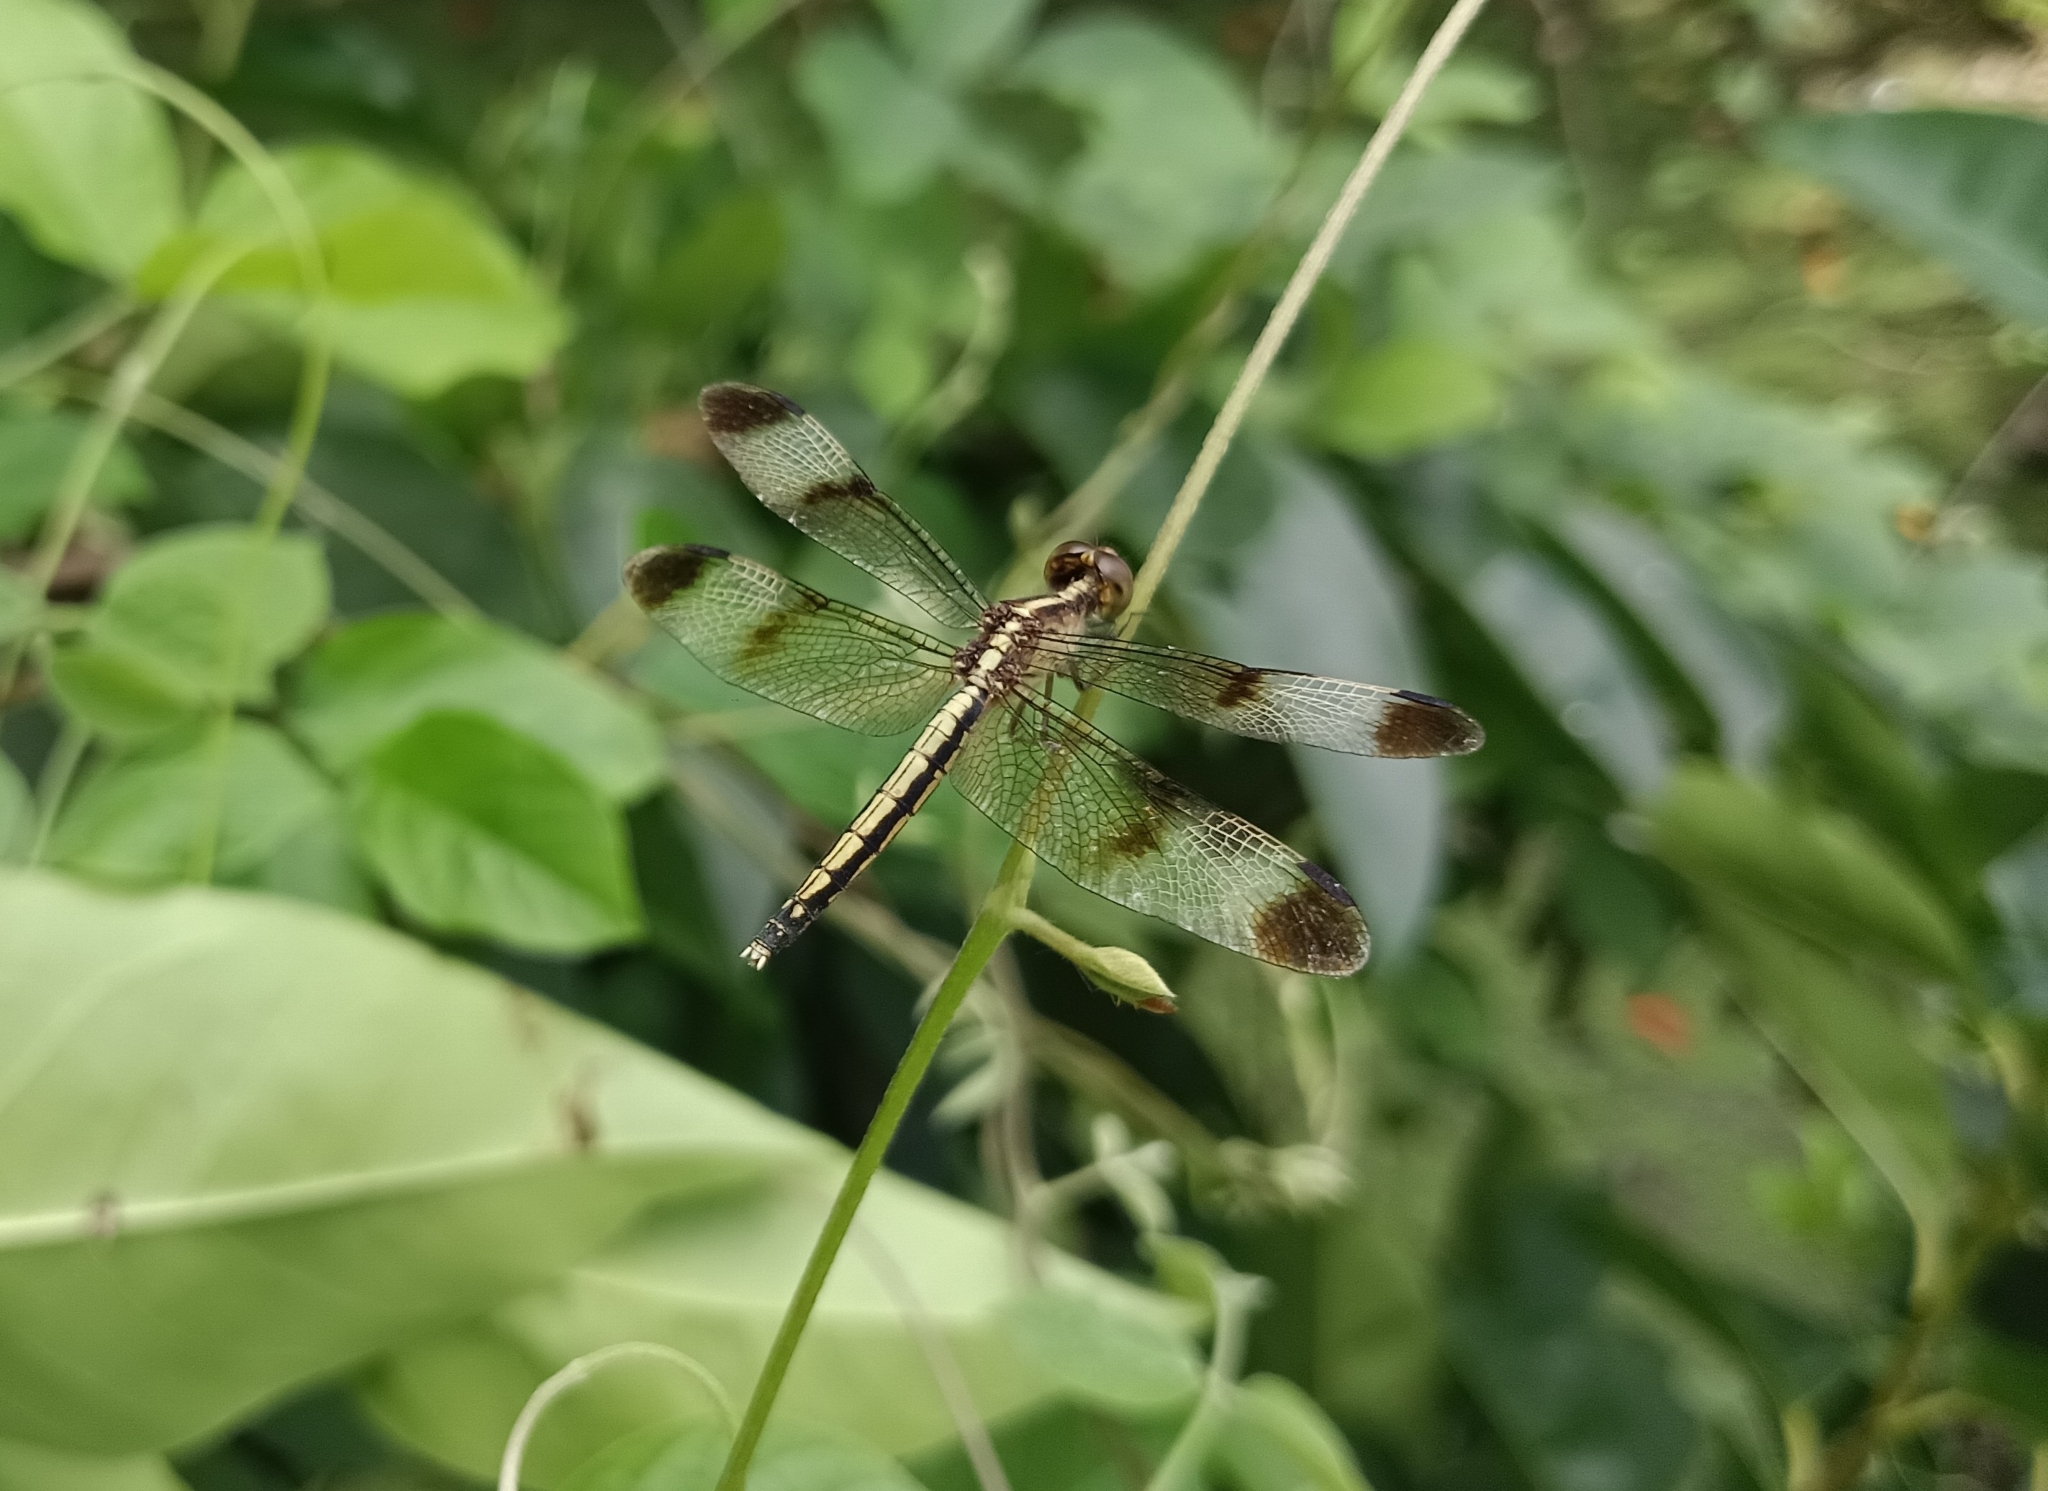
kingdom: Animalia
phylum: Arthropoda
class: Insecta
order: Odonata
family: Libellulidae
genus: Neurothemis
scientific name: Neurothemis tullia
